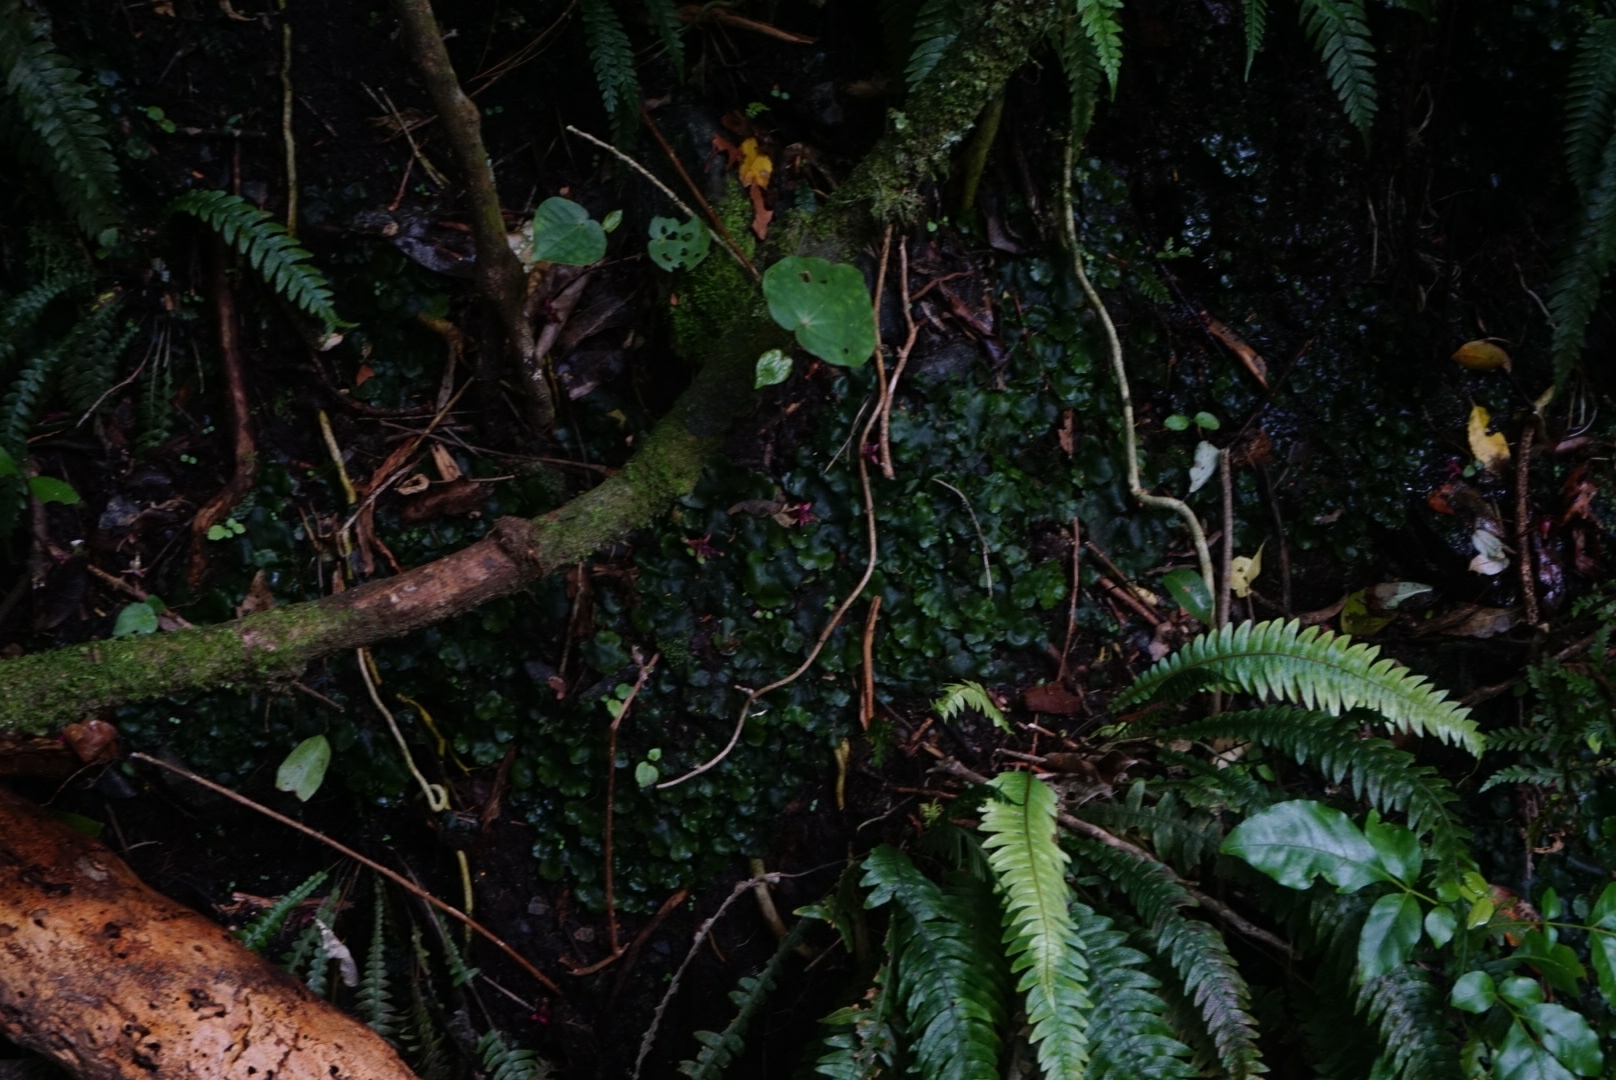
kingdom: Plantae
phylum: Marchantiophyta
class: Marchantiopsida
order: Marchantiales
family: Monocleaceae
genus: Monoclea
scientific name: Monoclea forsteri
